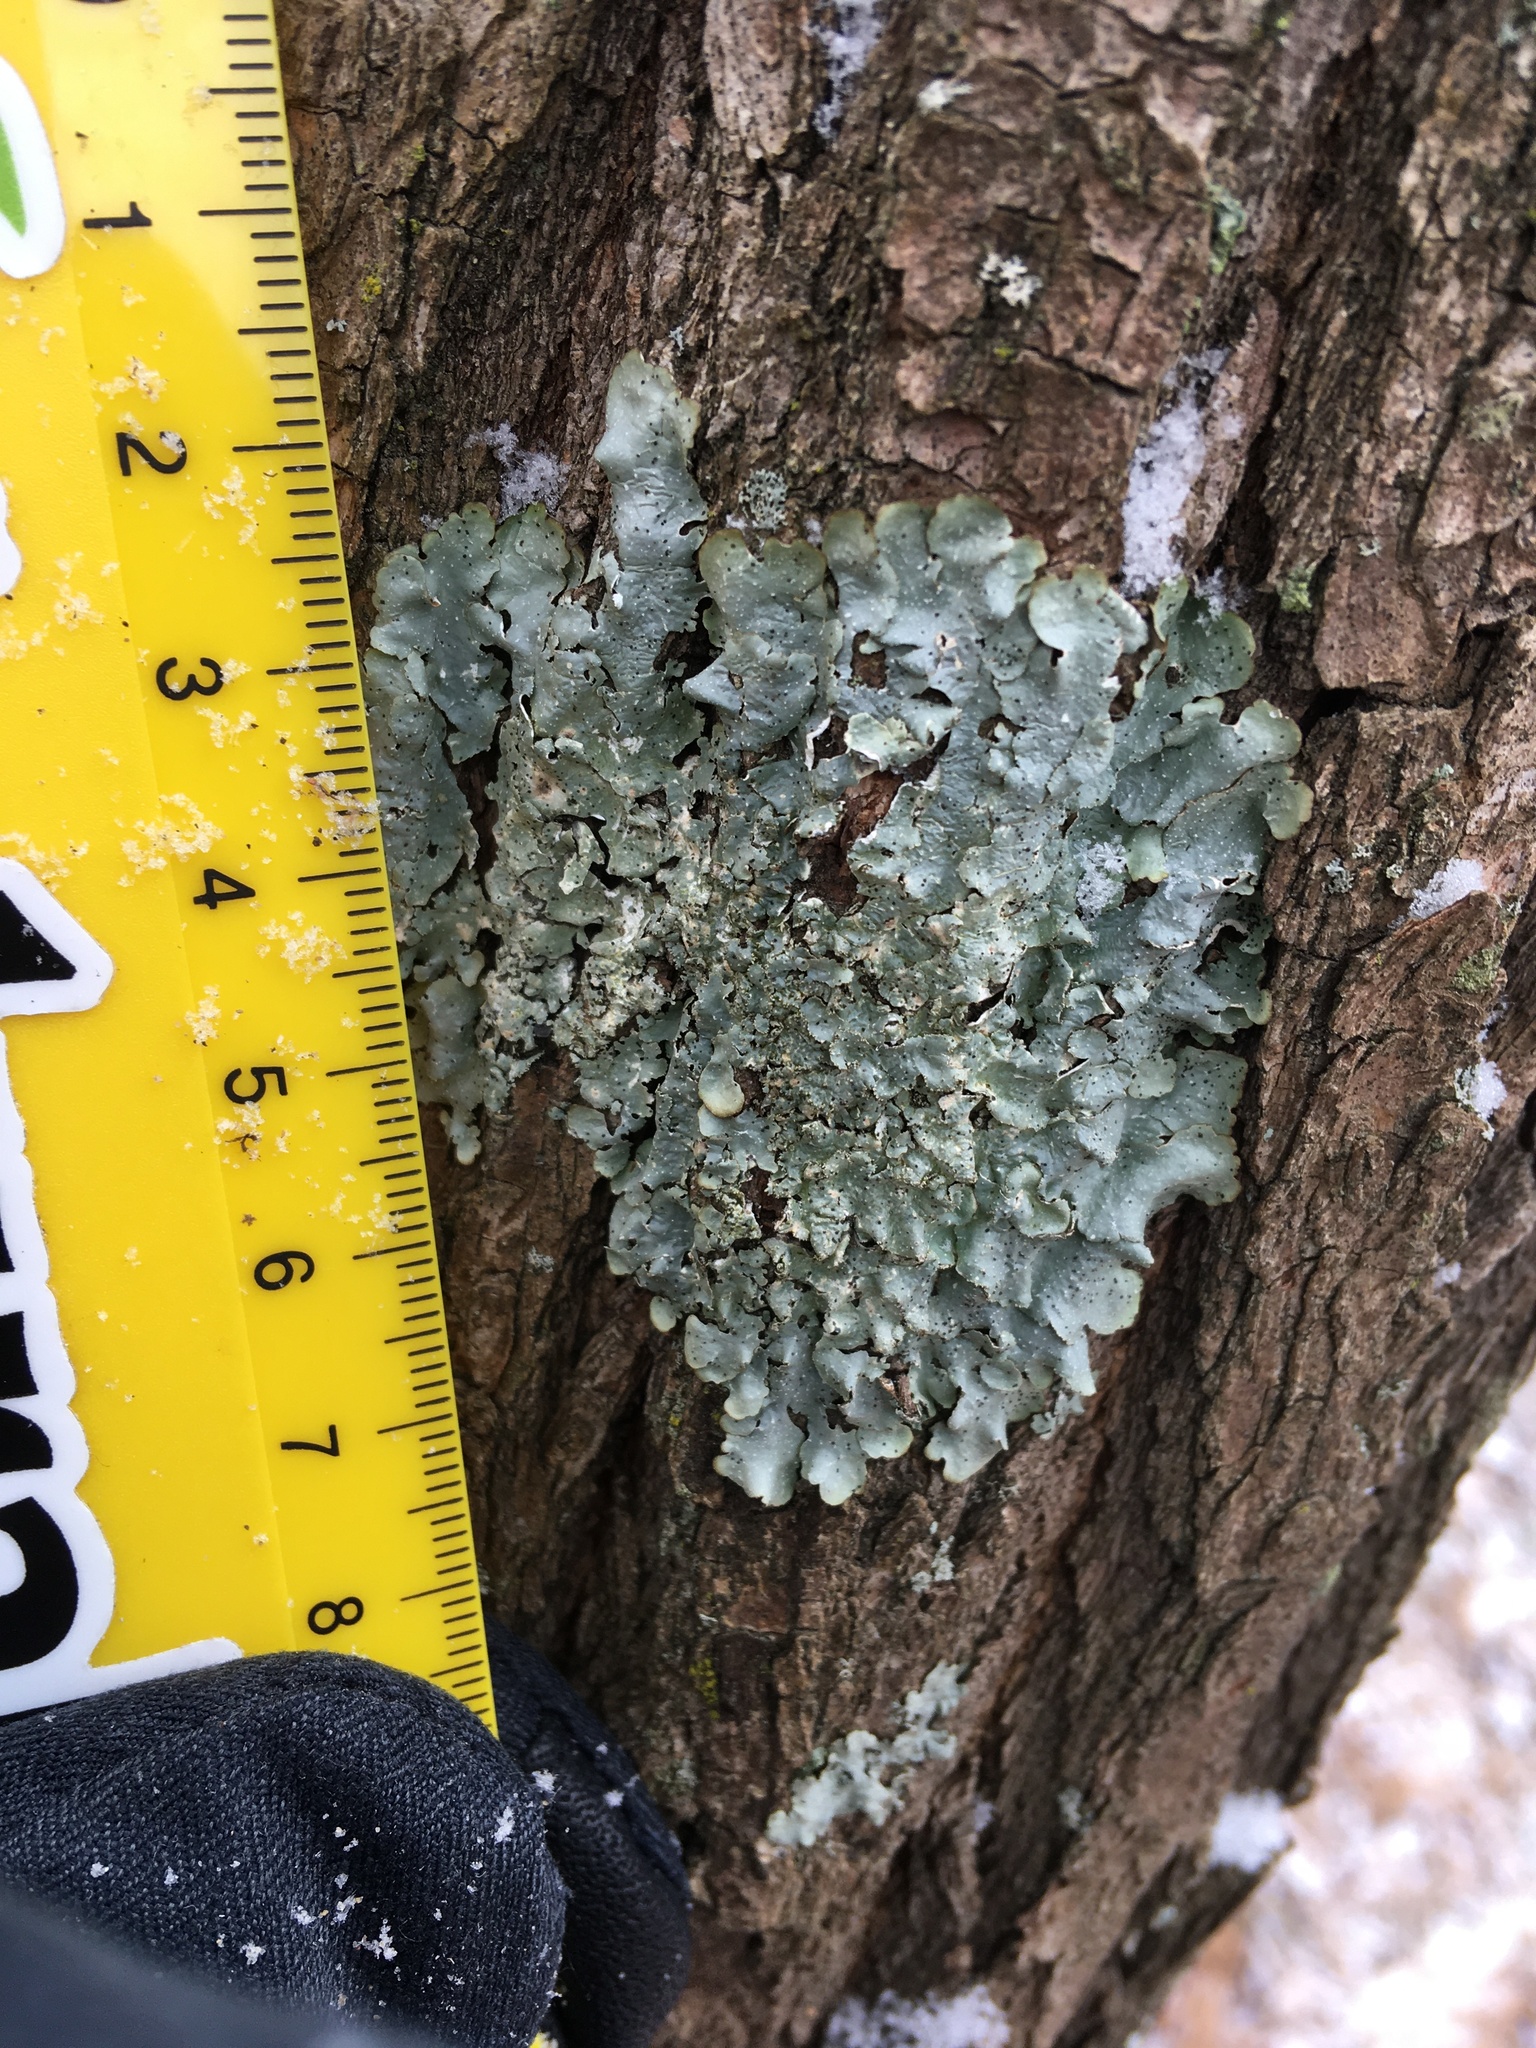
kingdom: Fungi
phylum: Ascomycota
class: Lecanoromycetes
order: Lecanorales
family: Parmeliaceae
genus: Punctelia
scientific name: Punctelia rudecta
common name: Rough speckled shield lichen
